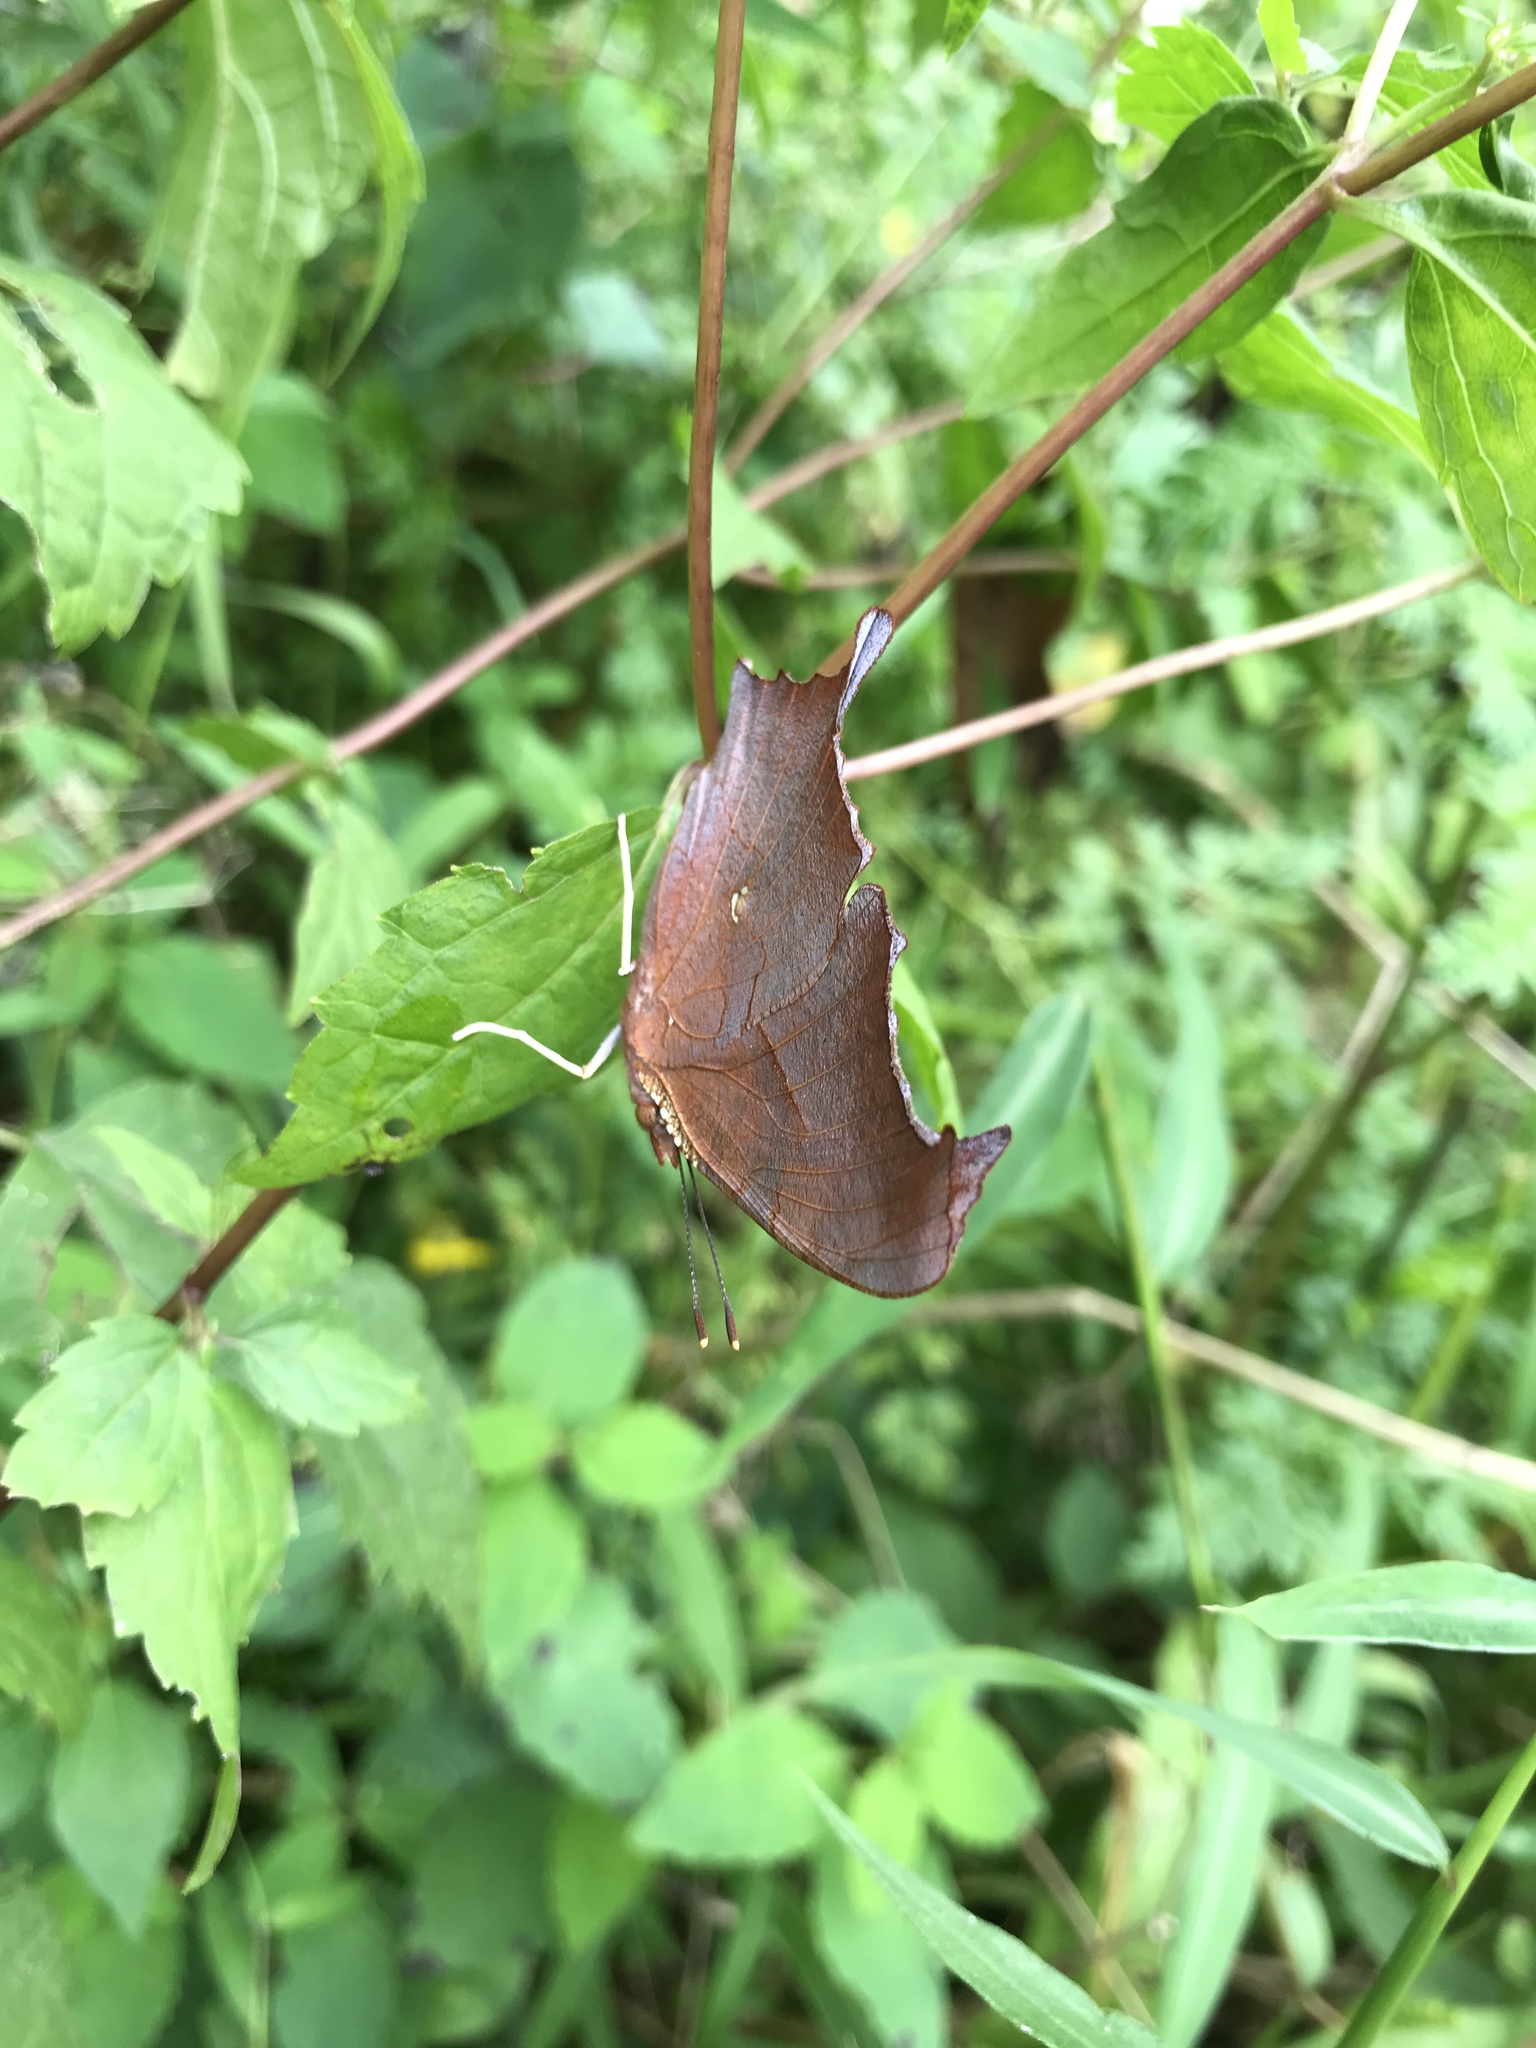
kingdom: Animalia
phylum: Arthropoda
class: Insecta
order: Lepidoptera
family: Nymphalidae
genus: Polygonia
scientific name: Polygonia interrogationis
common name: Question mark
